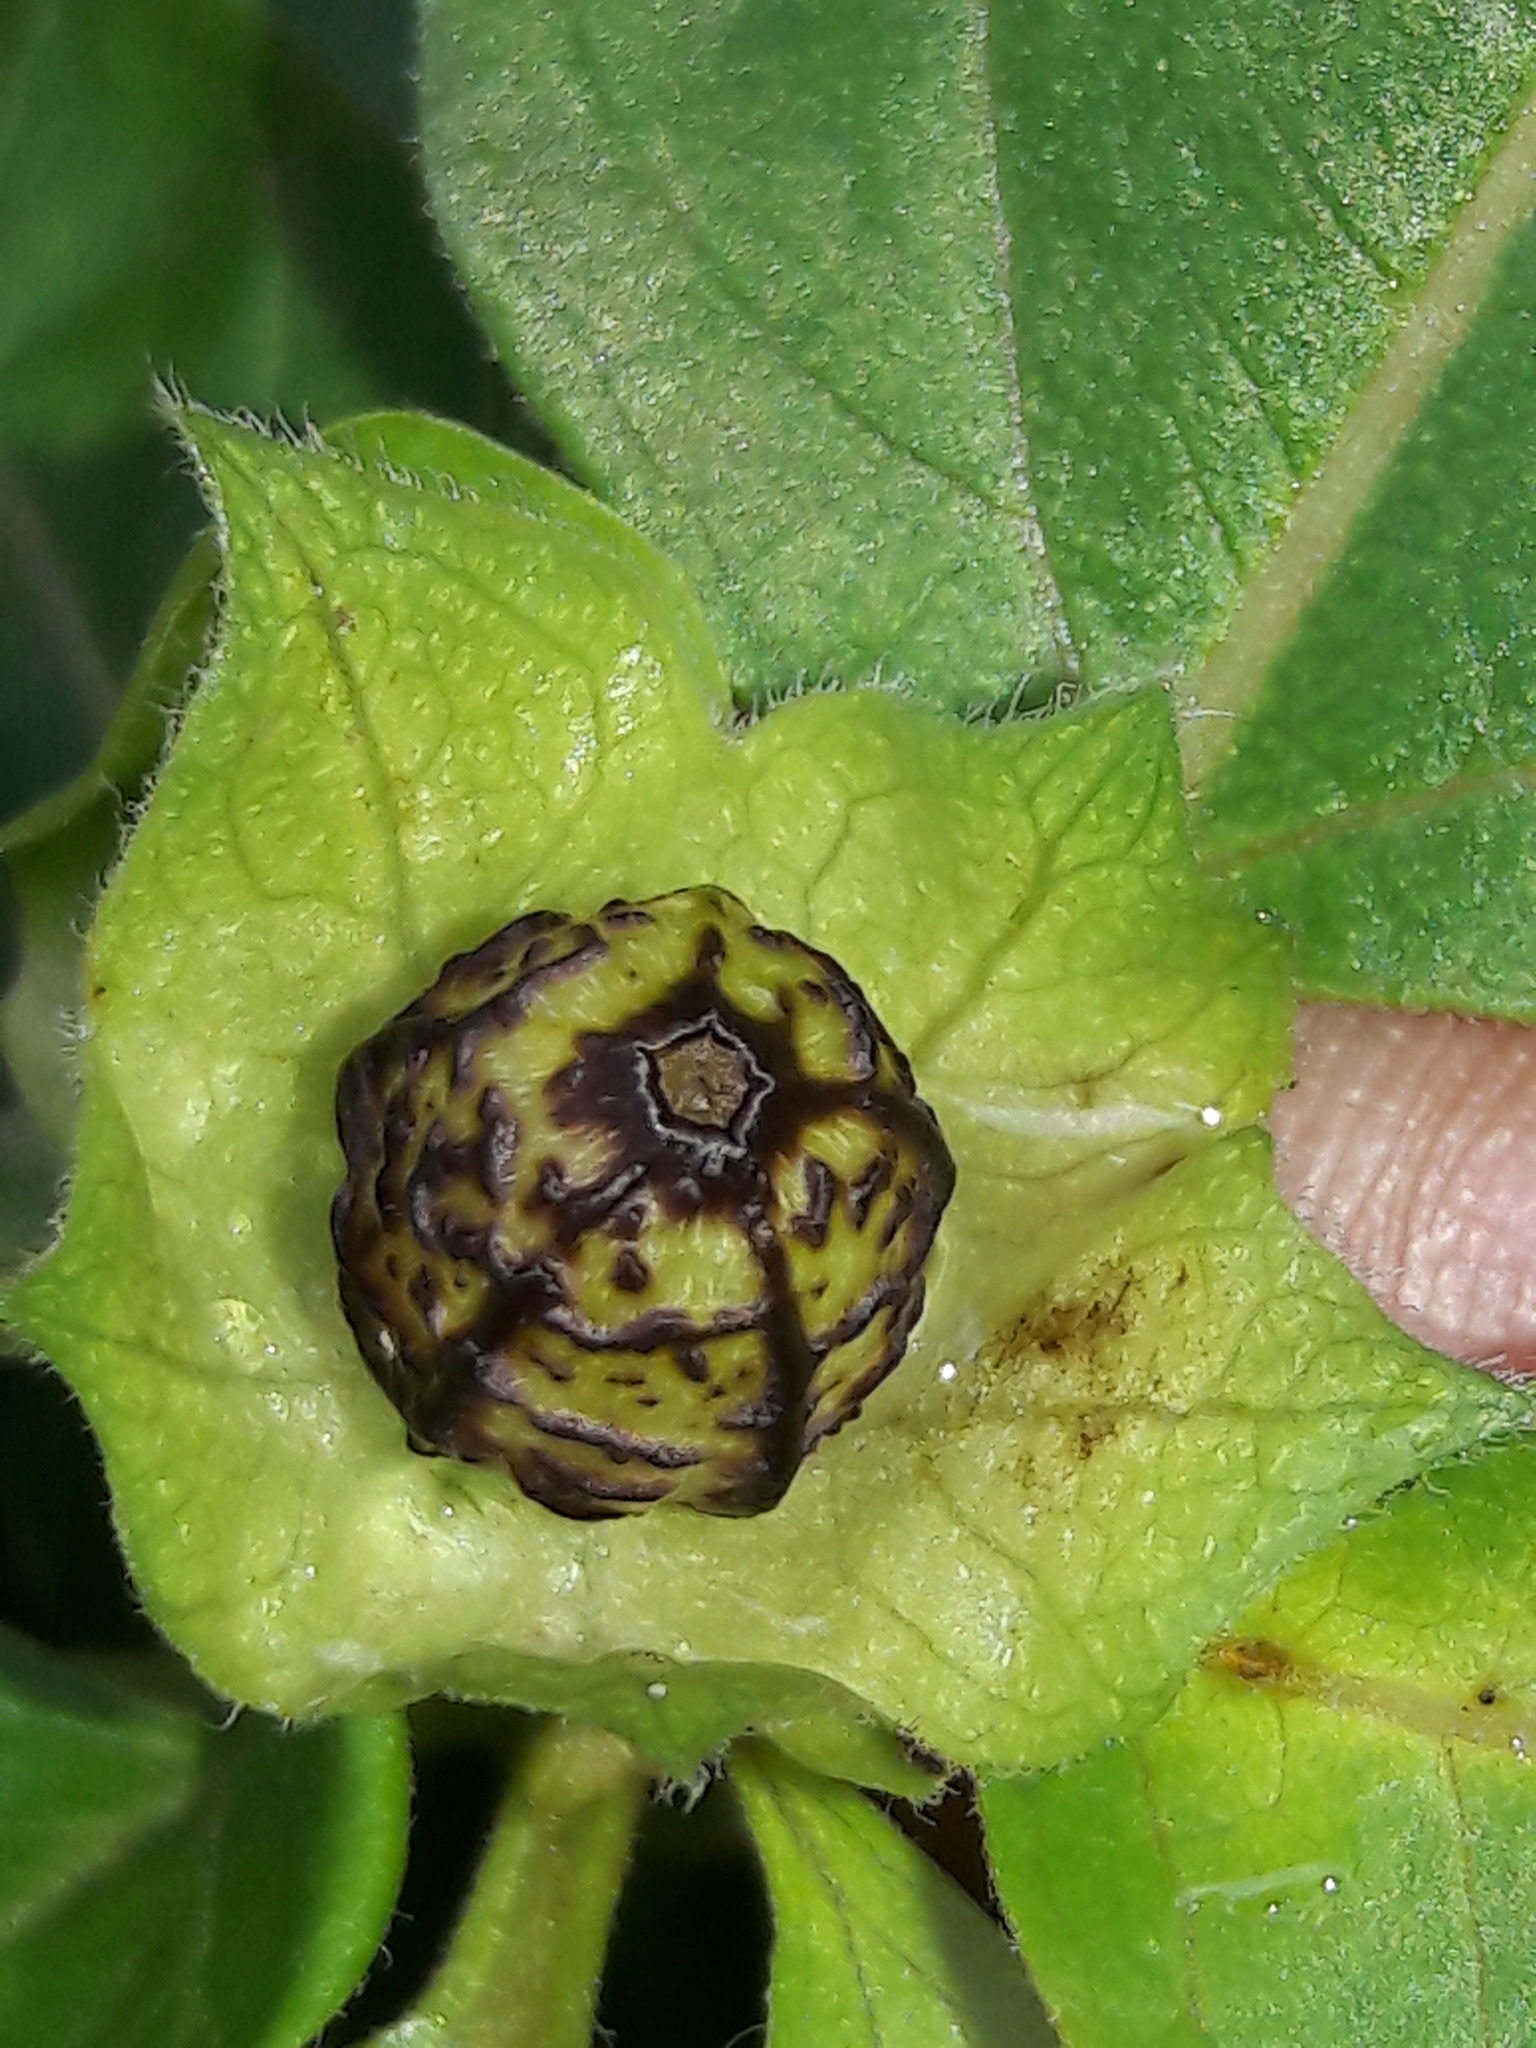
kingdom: Plantae
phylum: Tracheophyta
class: Magnoliopsida
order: Caryophyllales
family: Nyctaginaceae
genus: Mirabilis
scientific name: Mirabilis jalapa
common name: Marvel-of-peru
